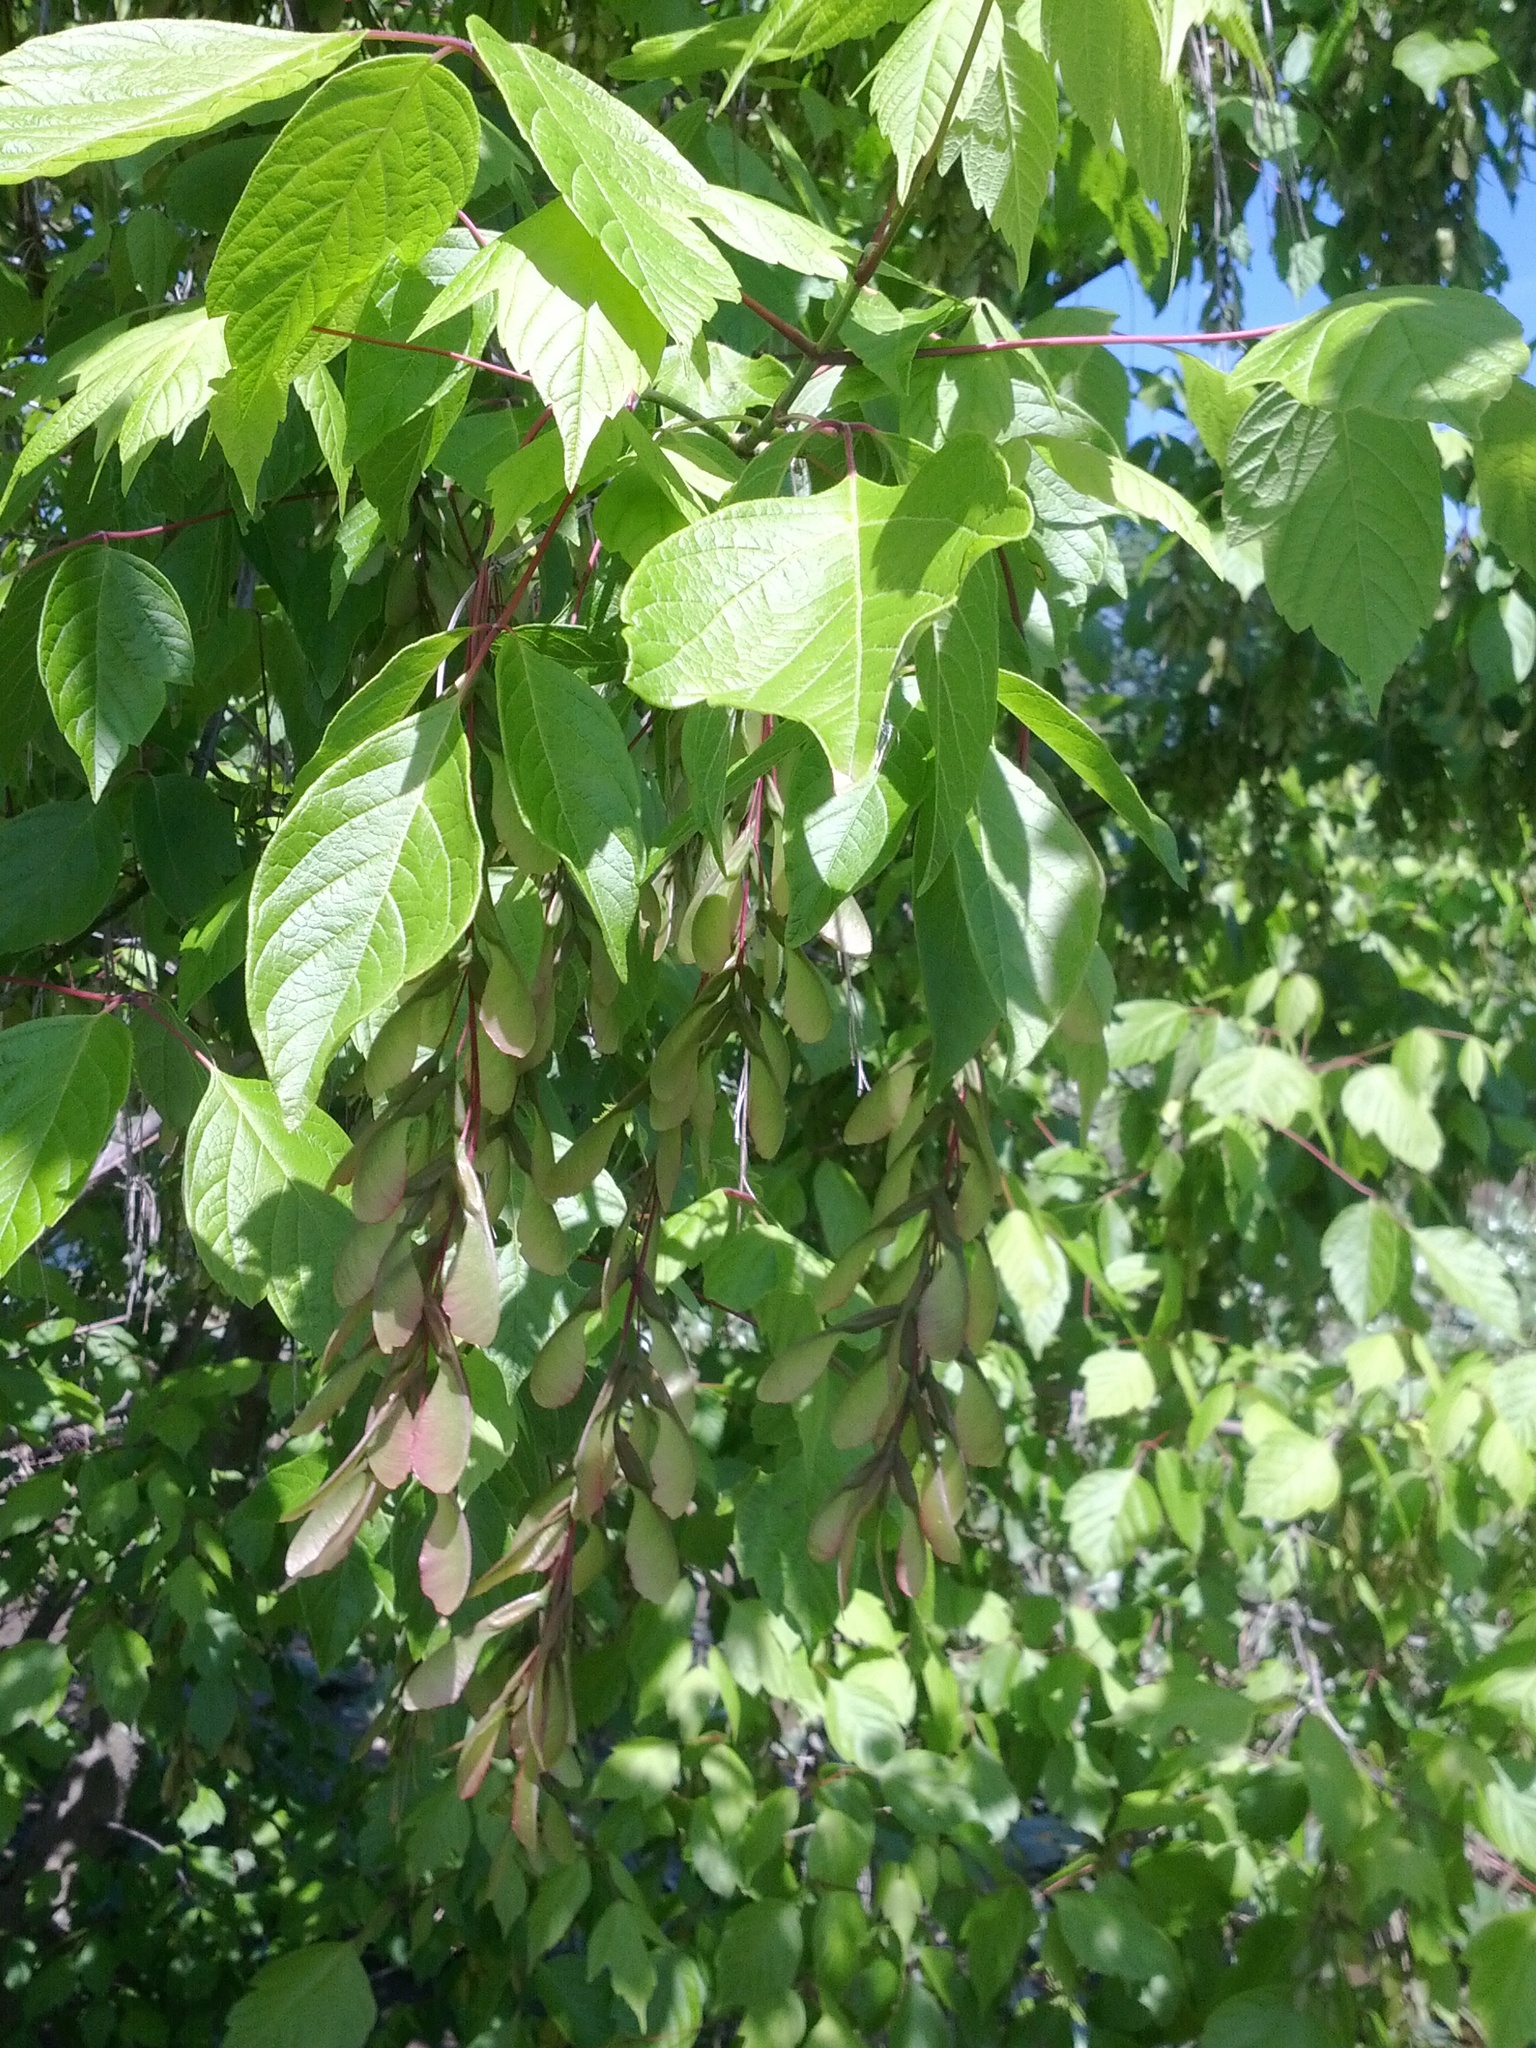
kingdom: Plantae
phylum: Tracheophyta
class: Magnoliopsida
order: Sapindales
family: Sapindaceae
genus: Acer
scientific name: Acer rubrum
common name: Red maple
